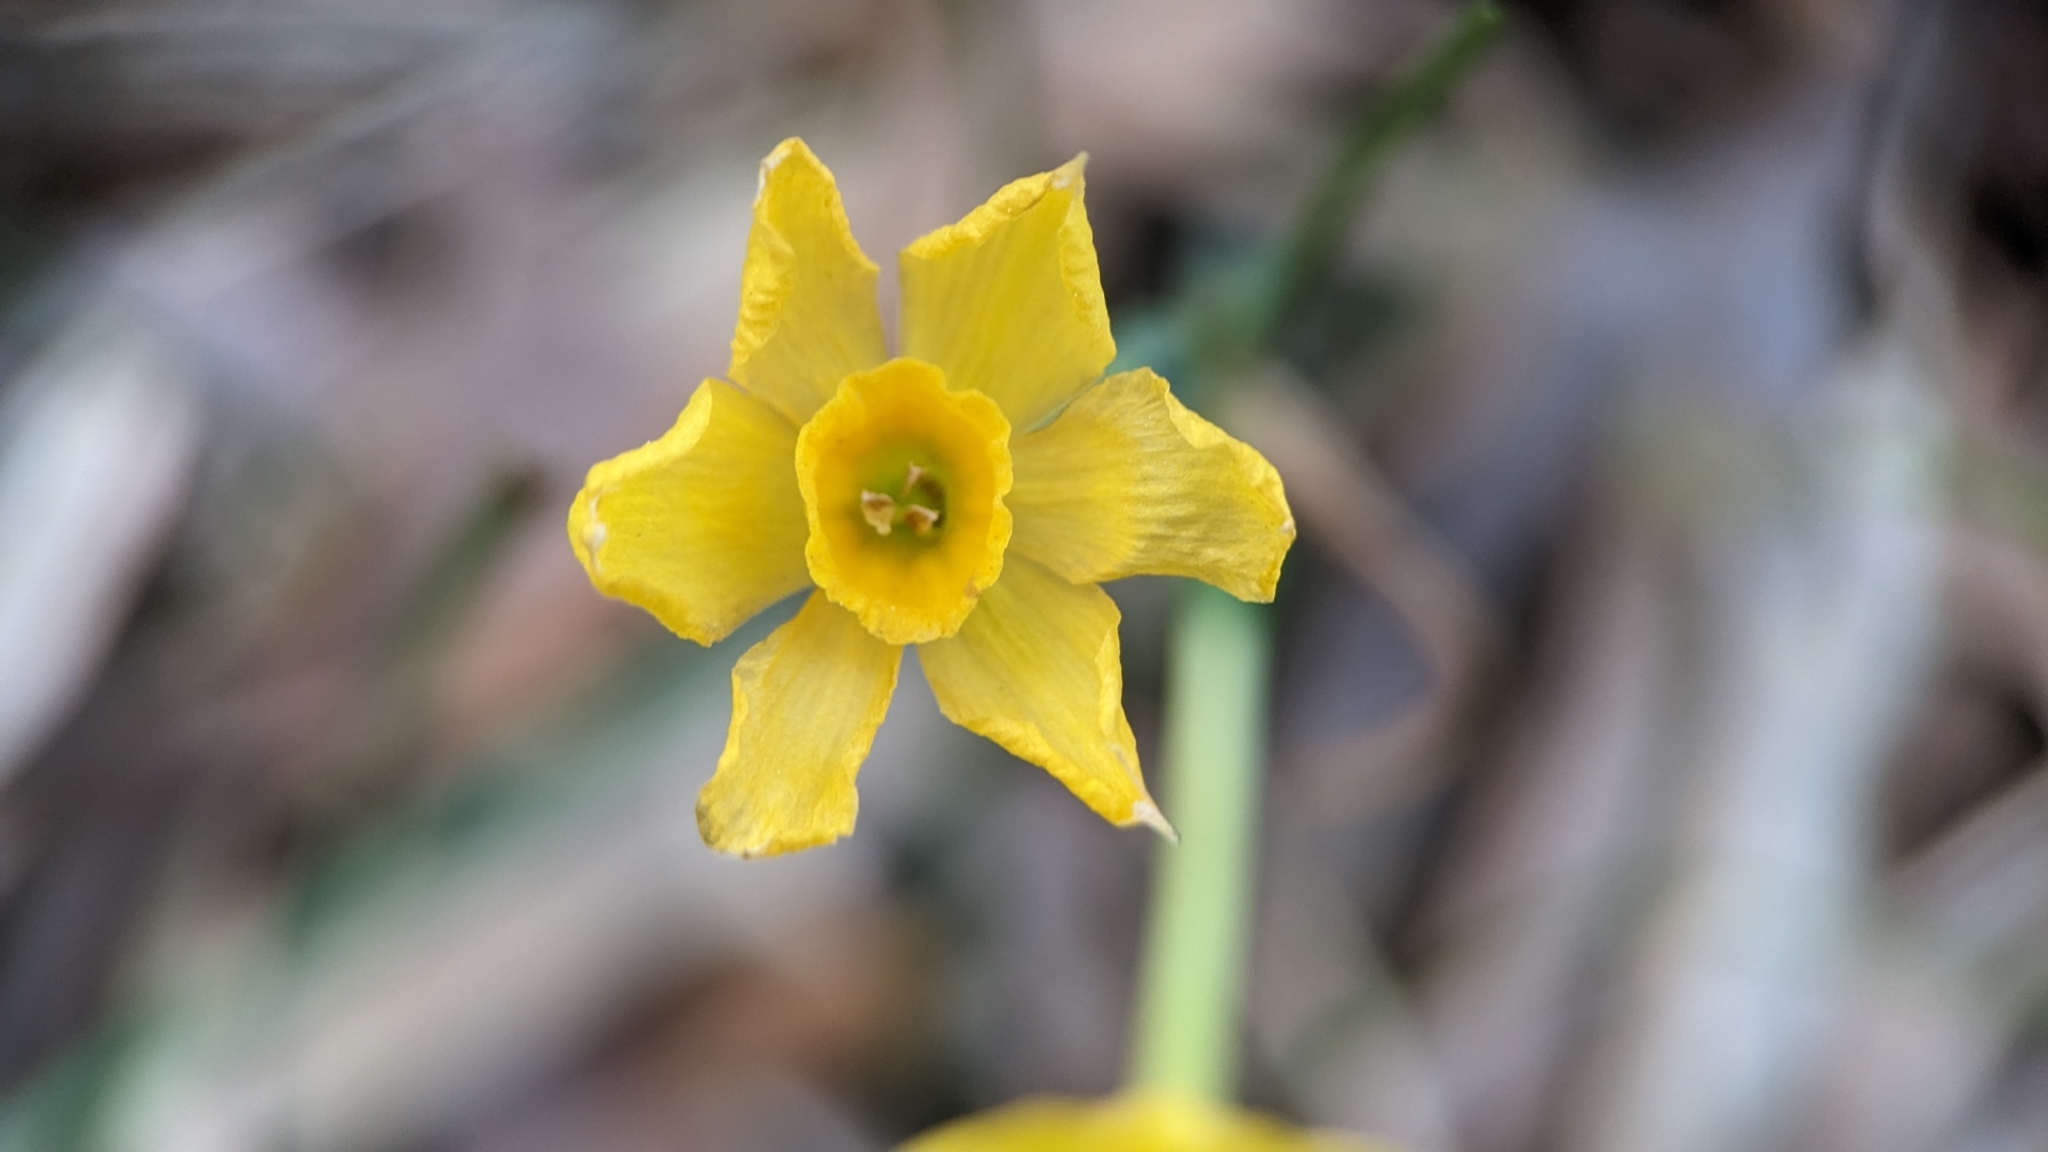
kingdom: Plantae
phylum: Tracheophyta
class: Liliopsida
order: Asparagales
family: Amaryllidaceae
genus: Narcissus
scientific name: Narcissus jonquilla
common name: Jonquil
